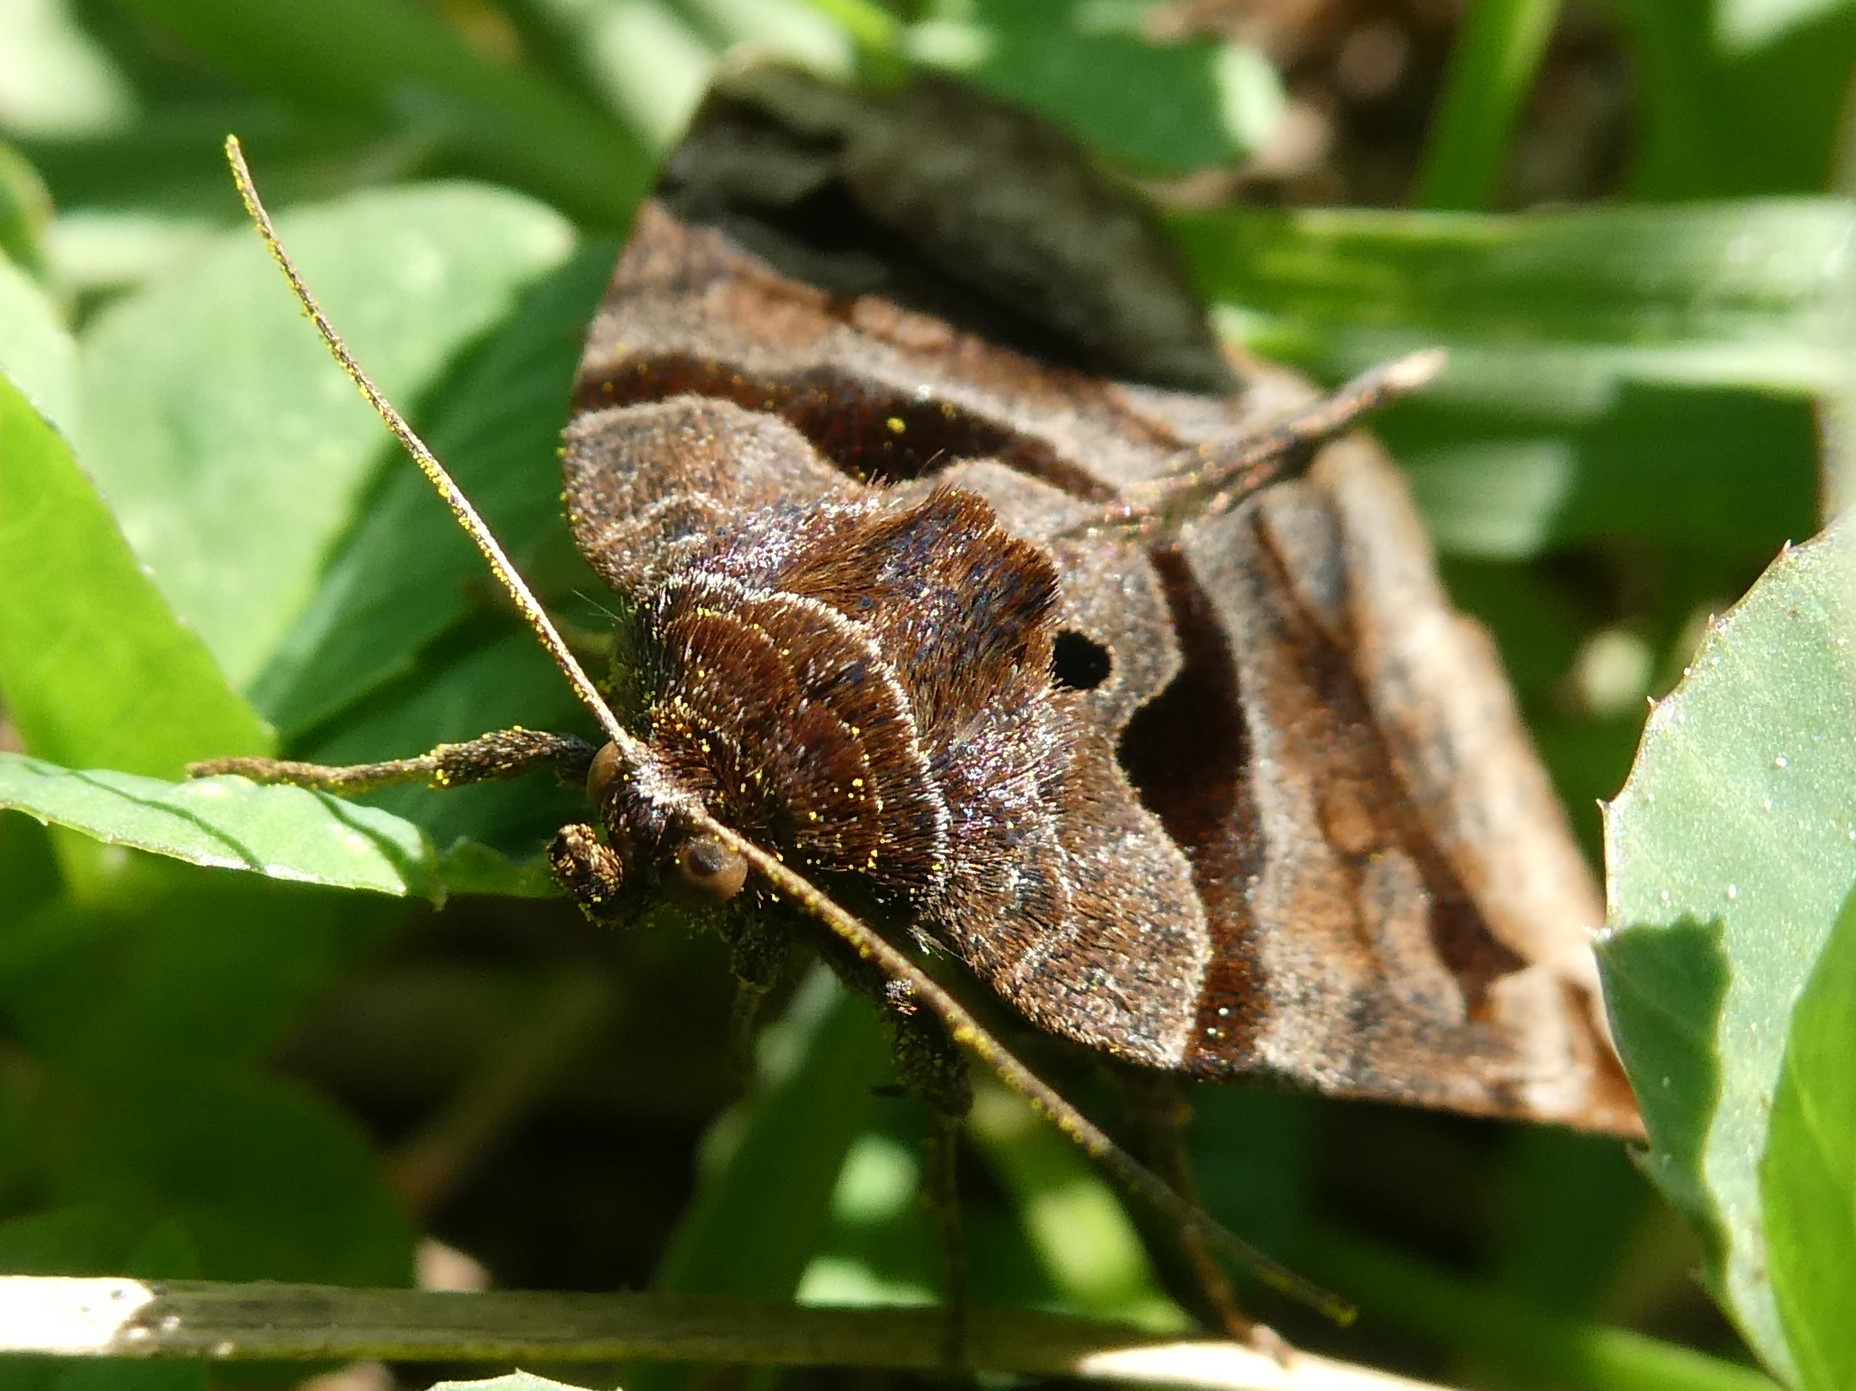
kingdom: Animalia
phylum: Arthropoda
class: Insecta
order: Lepidoptera
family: Erebidae
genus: Euclidia
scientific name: Euclidia cuspidea
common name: Toothed somberwing
